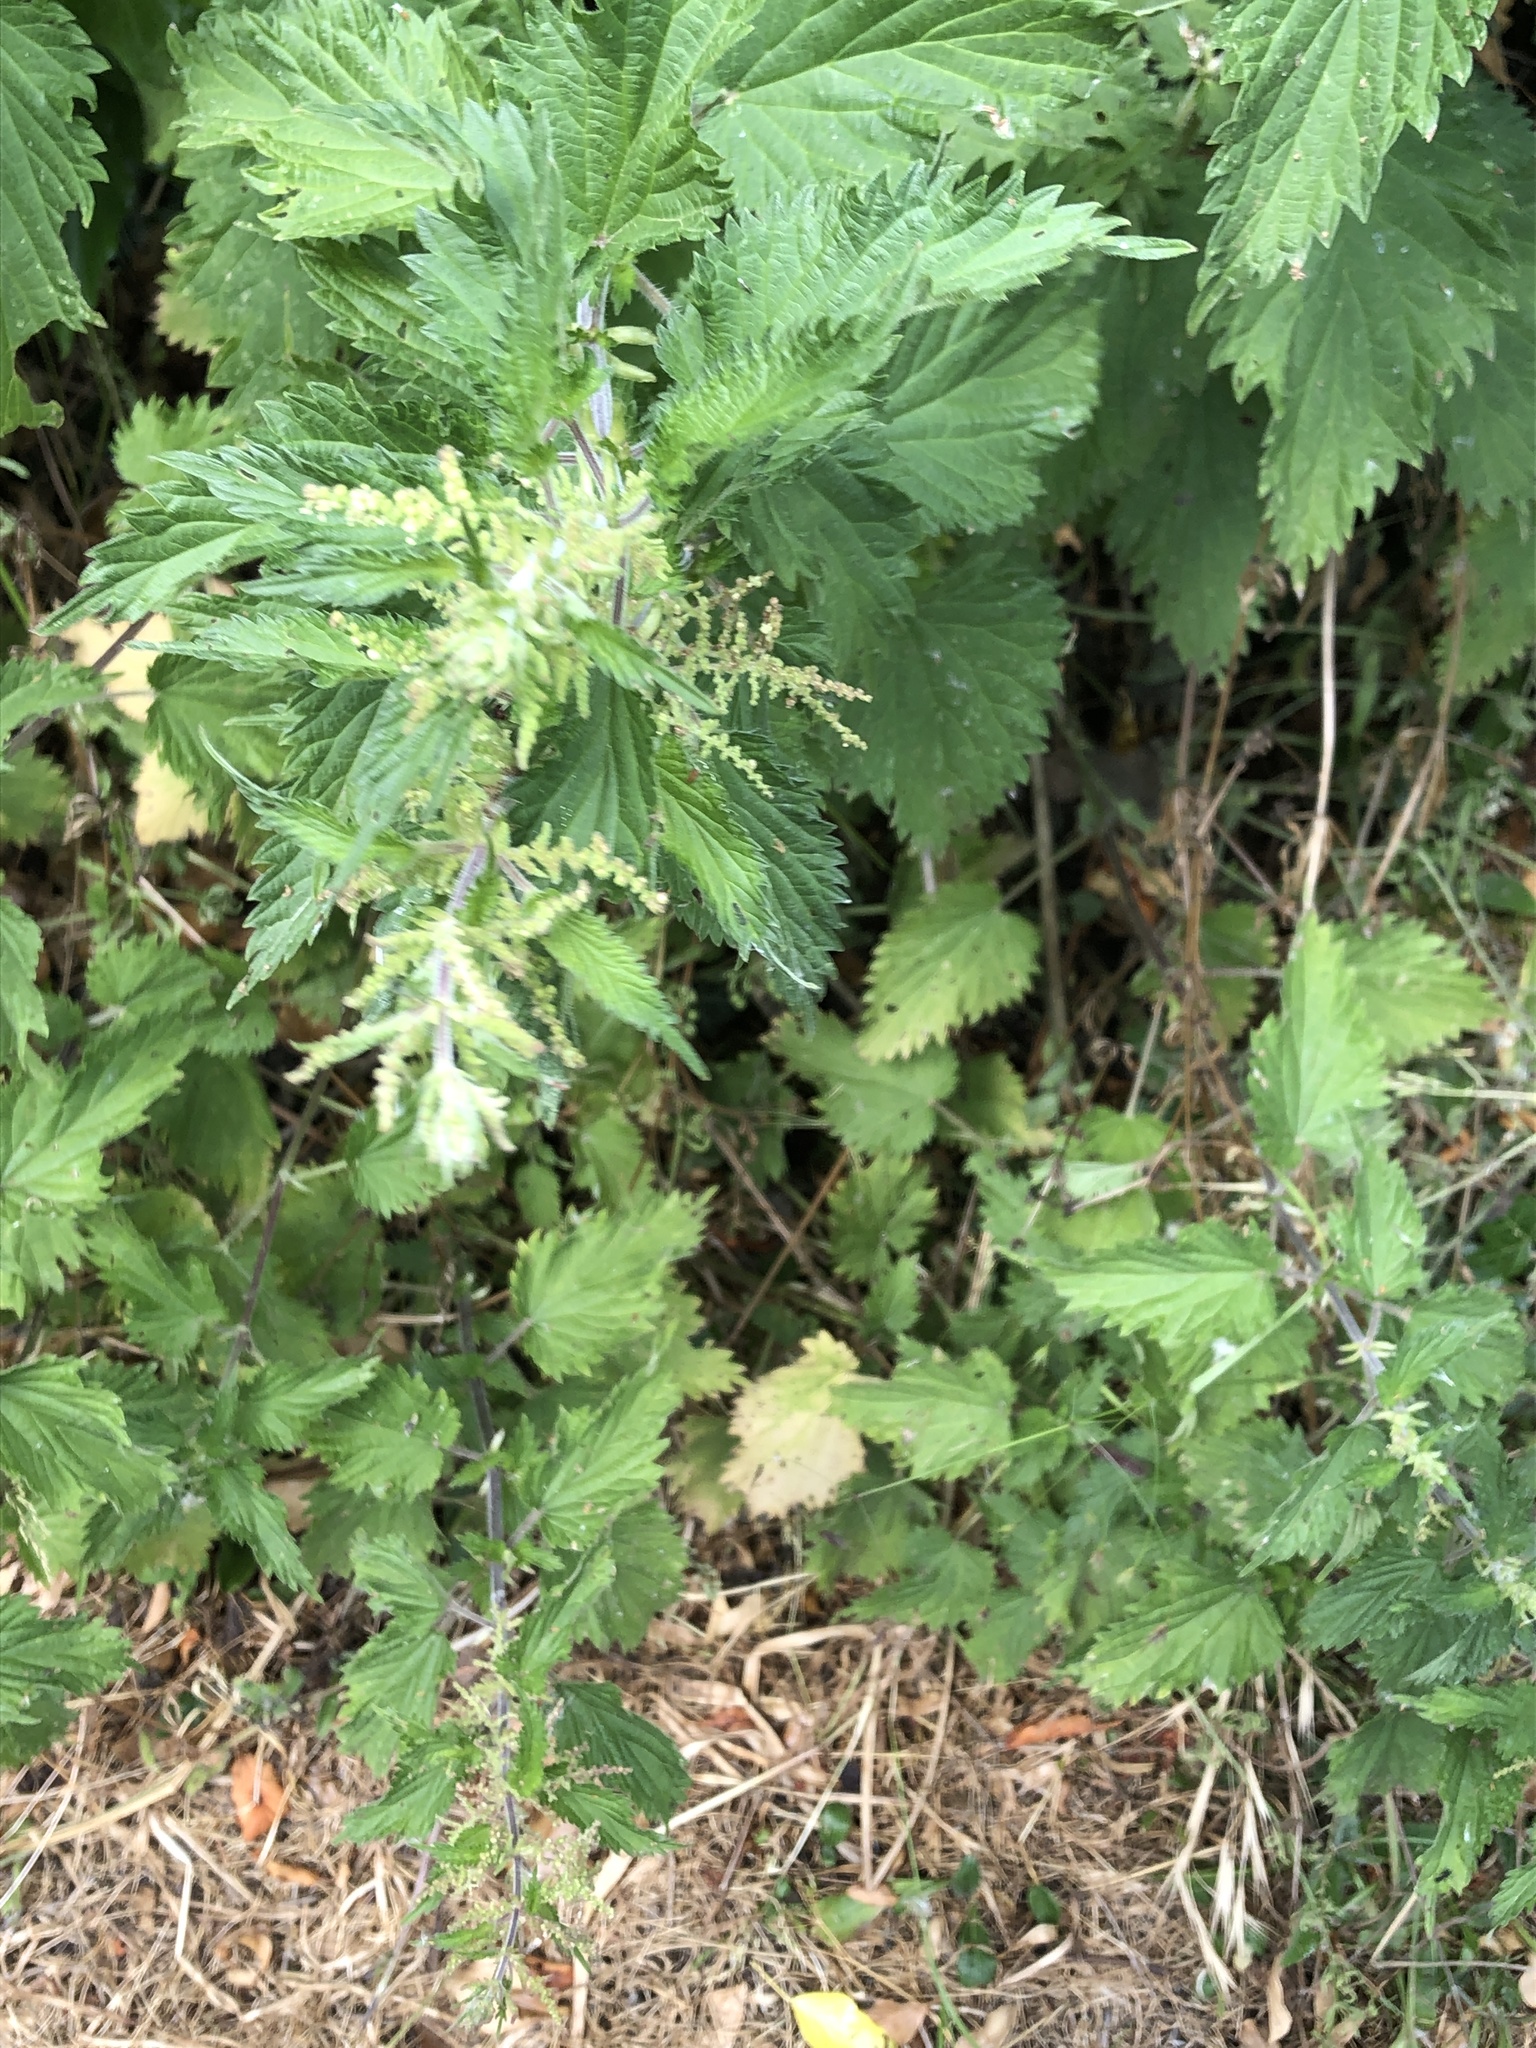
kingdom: Plantae
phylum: Tracheophyta
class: Magnoliopsida
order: Rosales
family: Urticaceae
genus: Urtica
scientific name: Urtica dioica
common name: Common nettle
